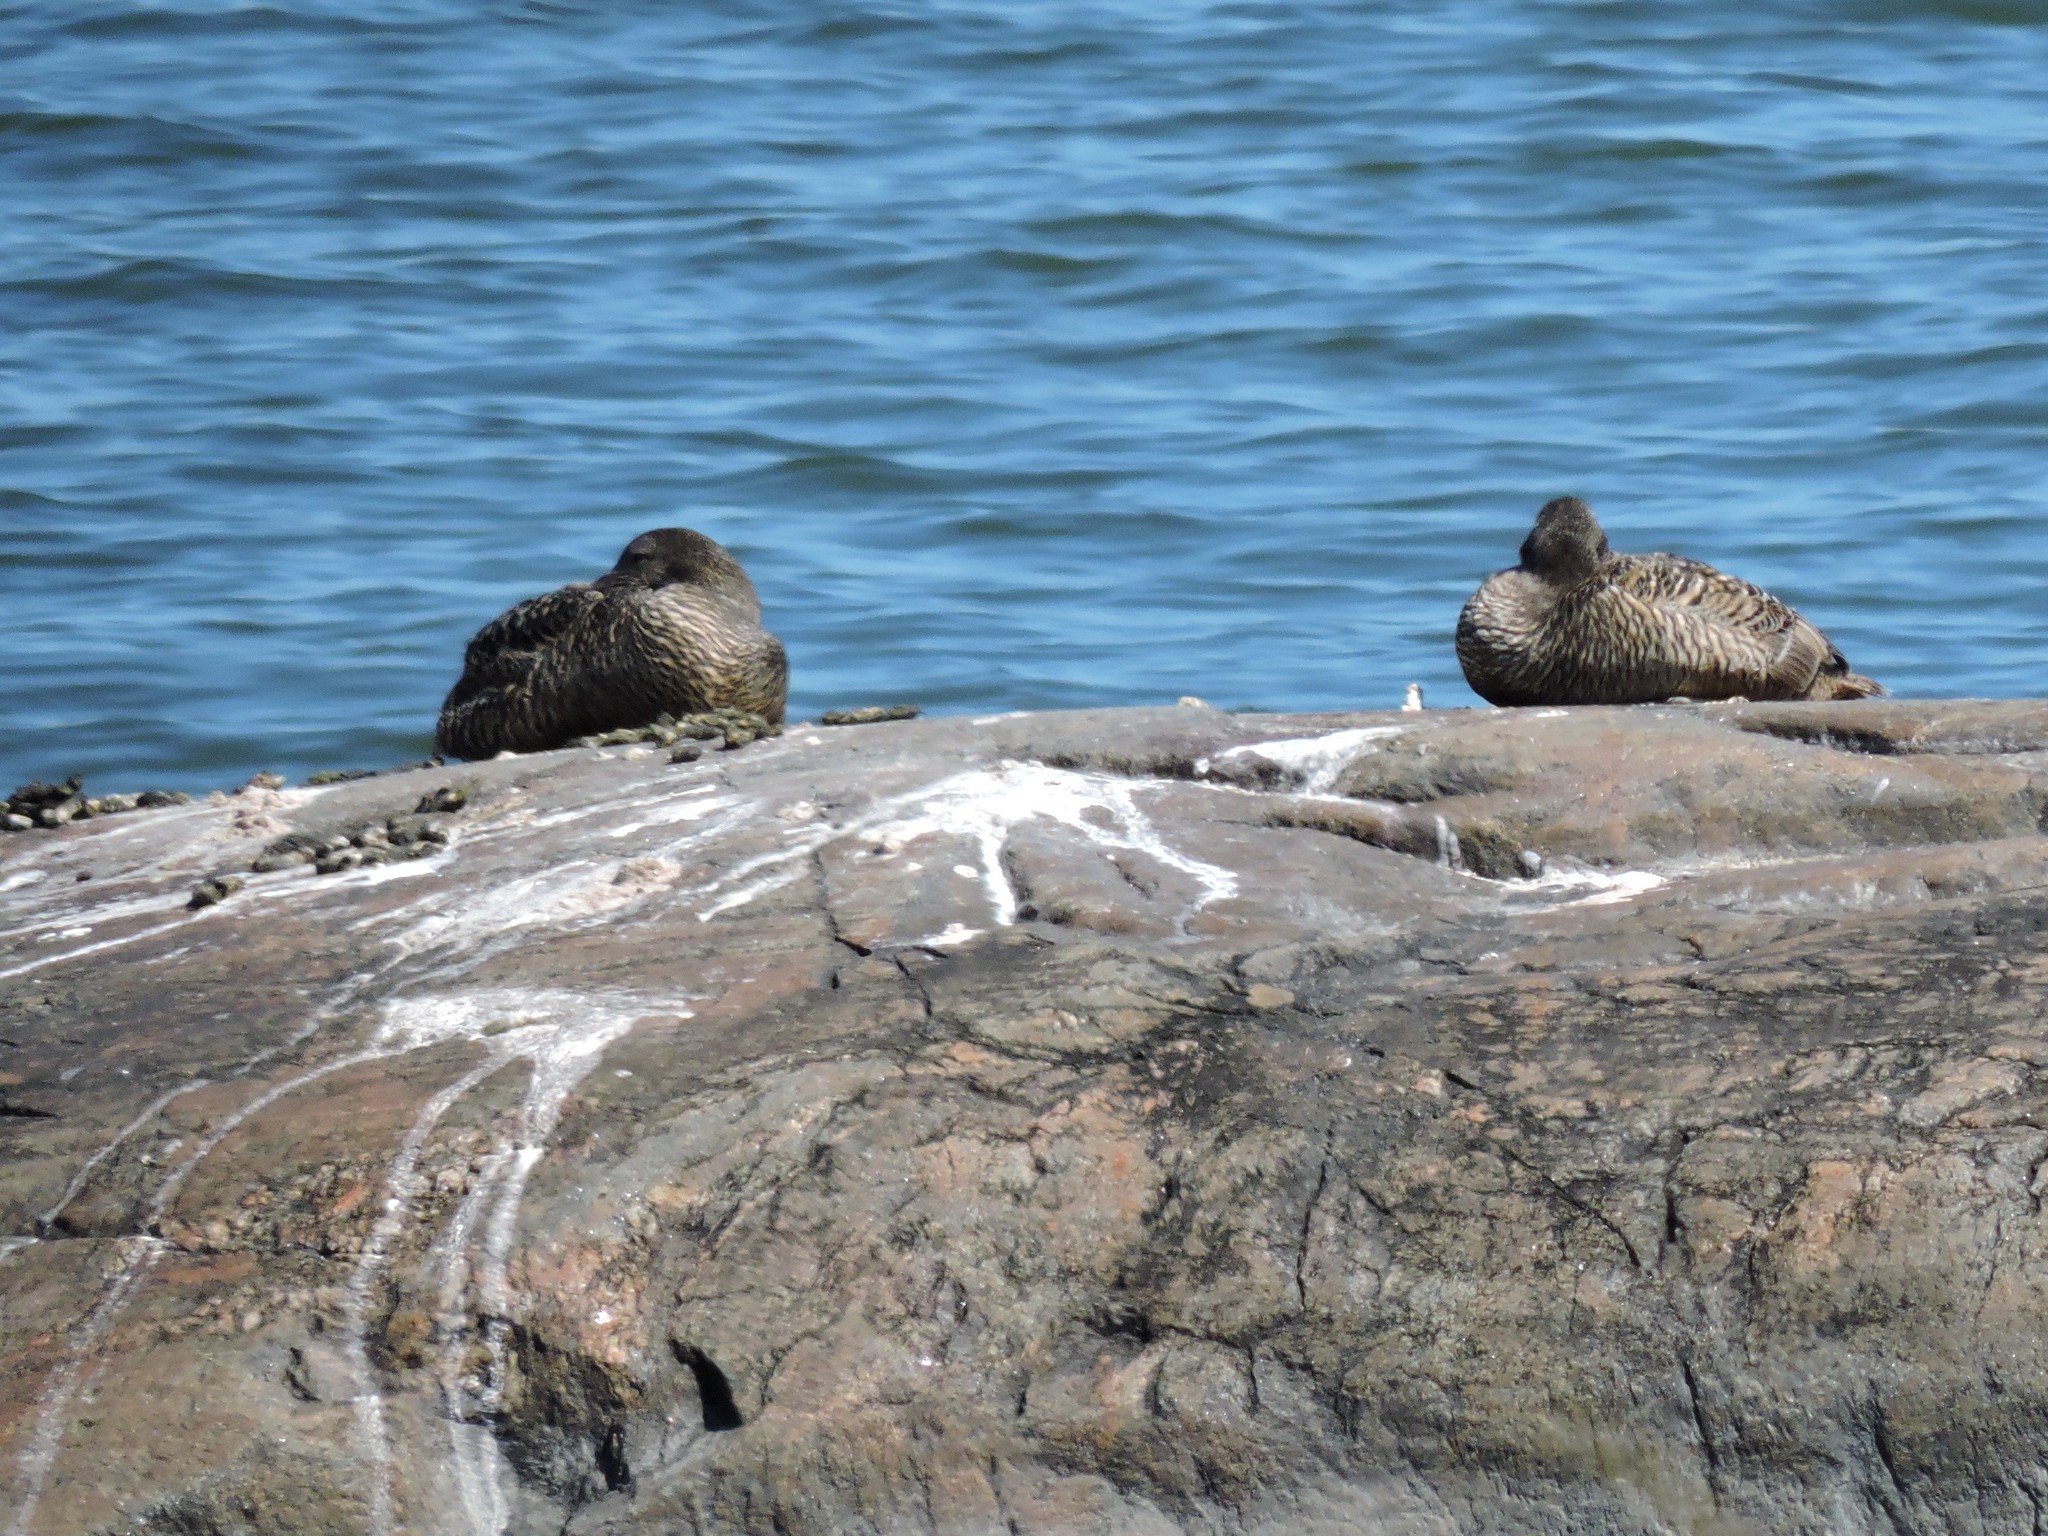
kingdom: Animalia
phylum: Chordata
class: Aves
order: Anseriformes
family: Anatidae
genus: Somateria
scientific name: Somateria mollissima
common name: Common eider
